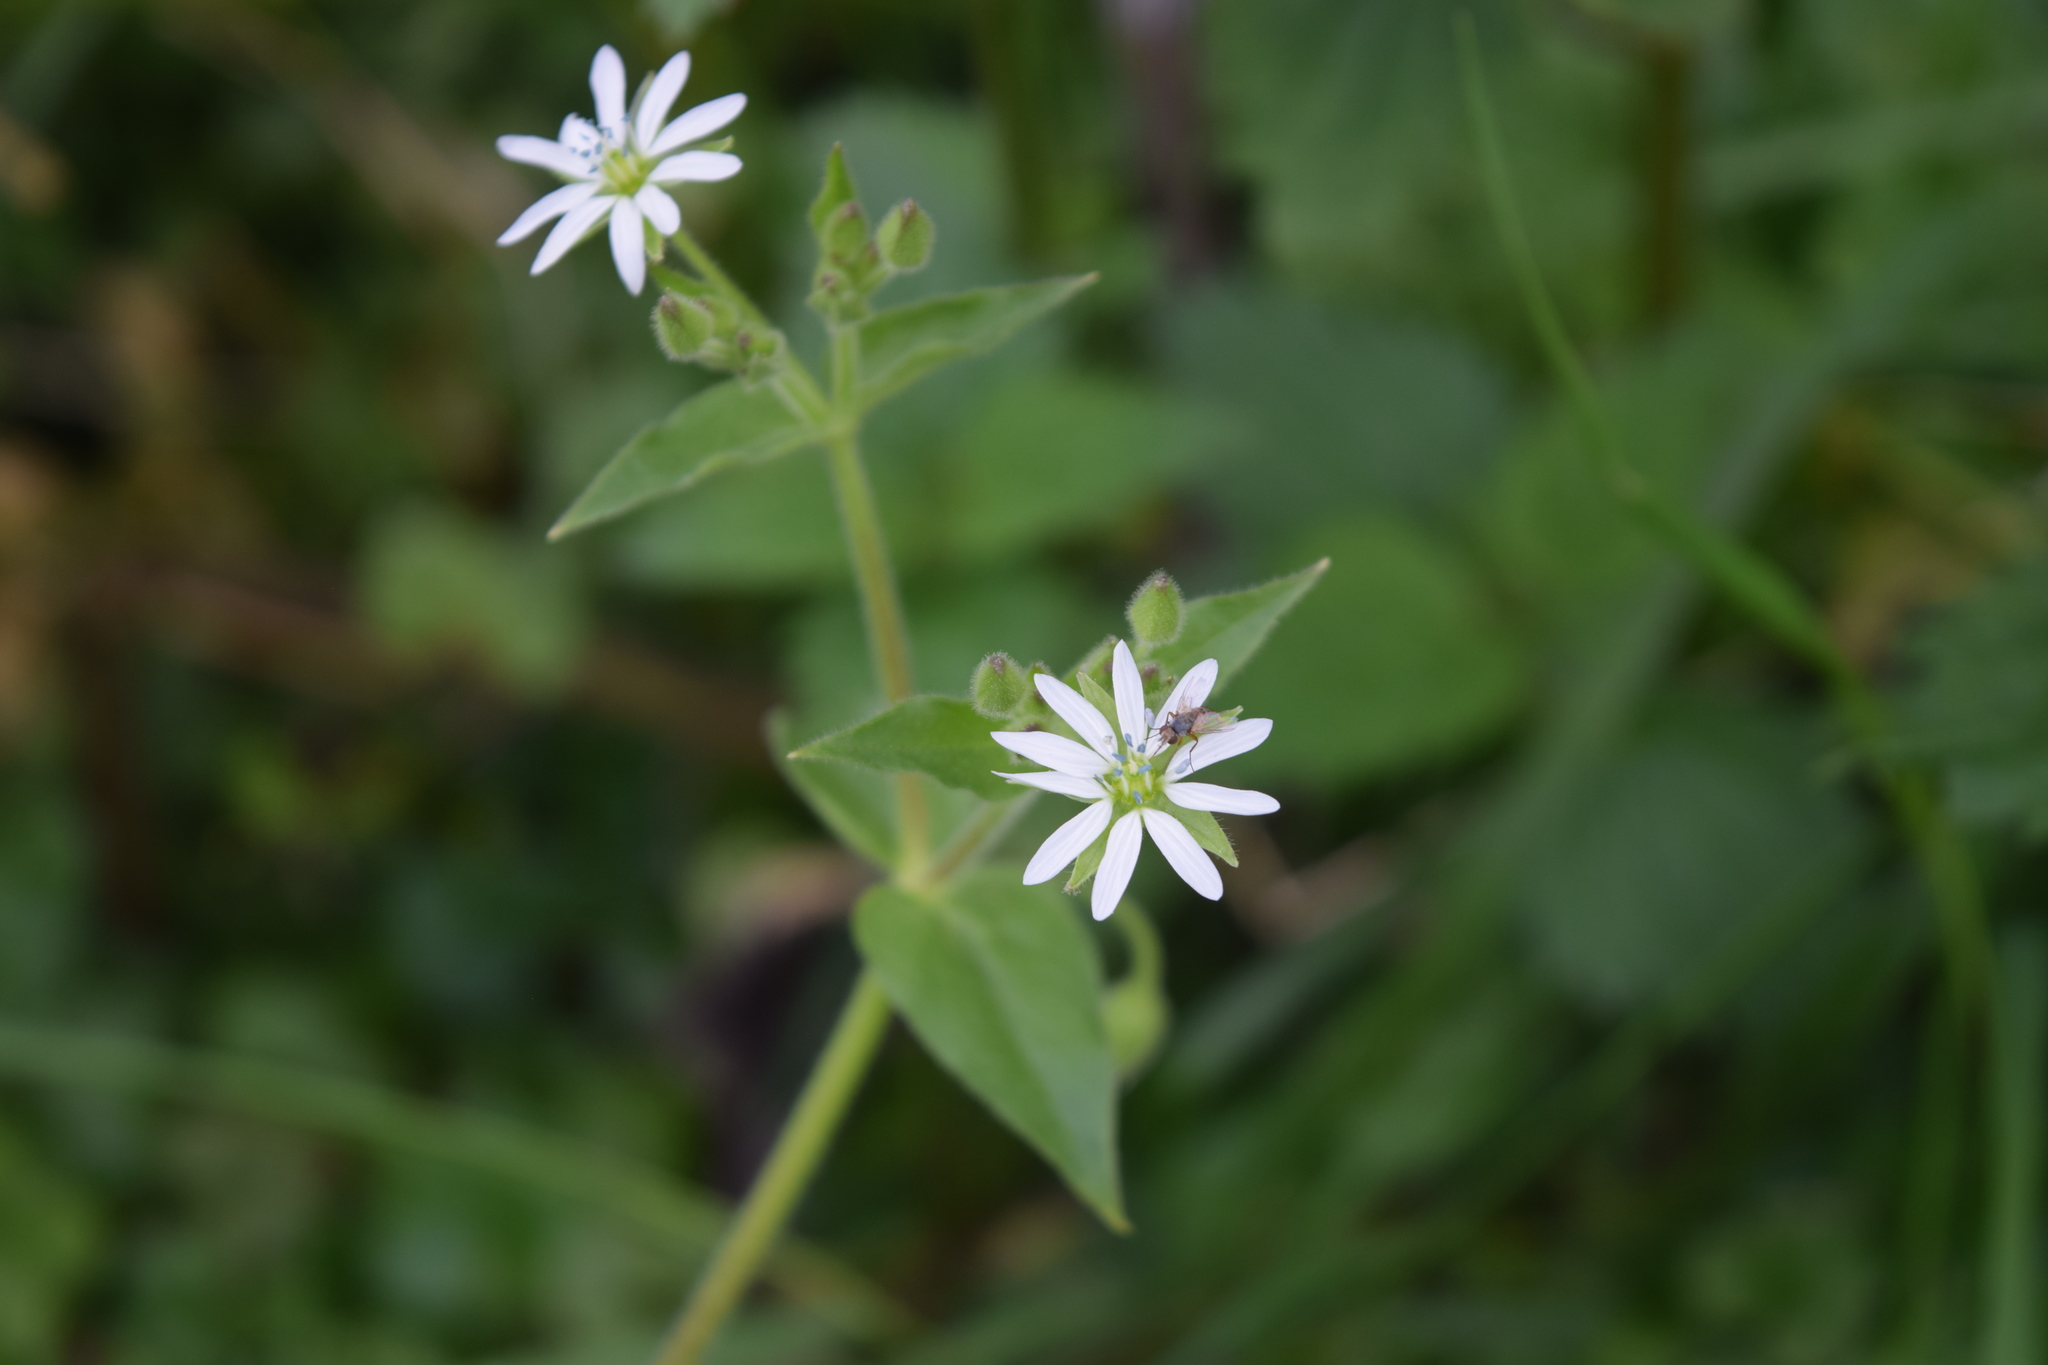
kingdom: Plantae
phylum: Tracheophyta
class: Magnoliopsida
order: Caryophyllales
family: Caryophyllaceae
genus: Stellaria
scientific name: Stellaria aquatica
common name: Water chickweed
